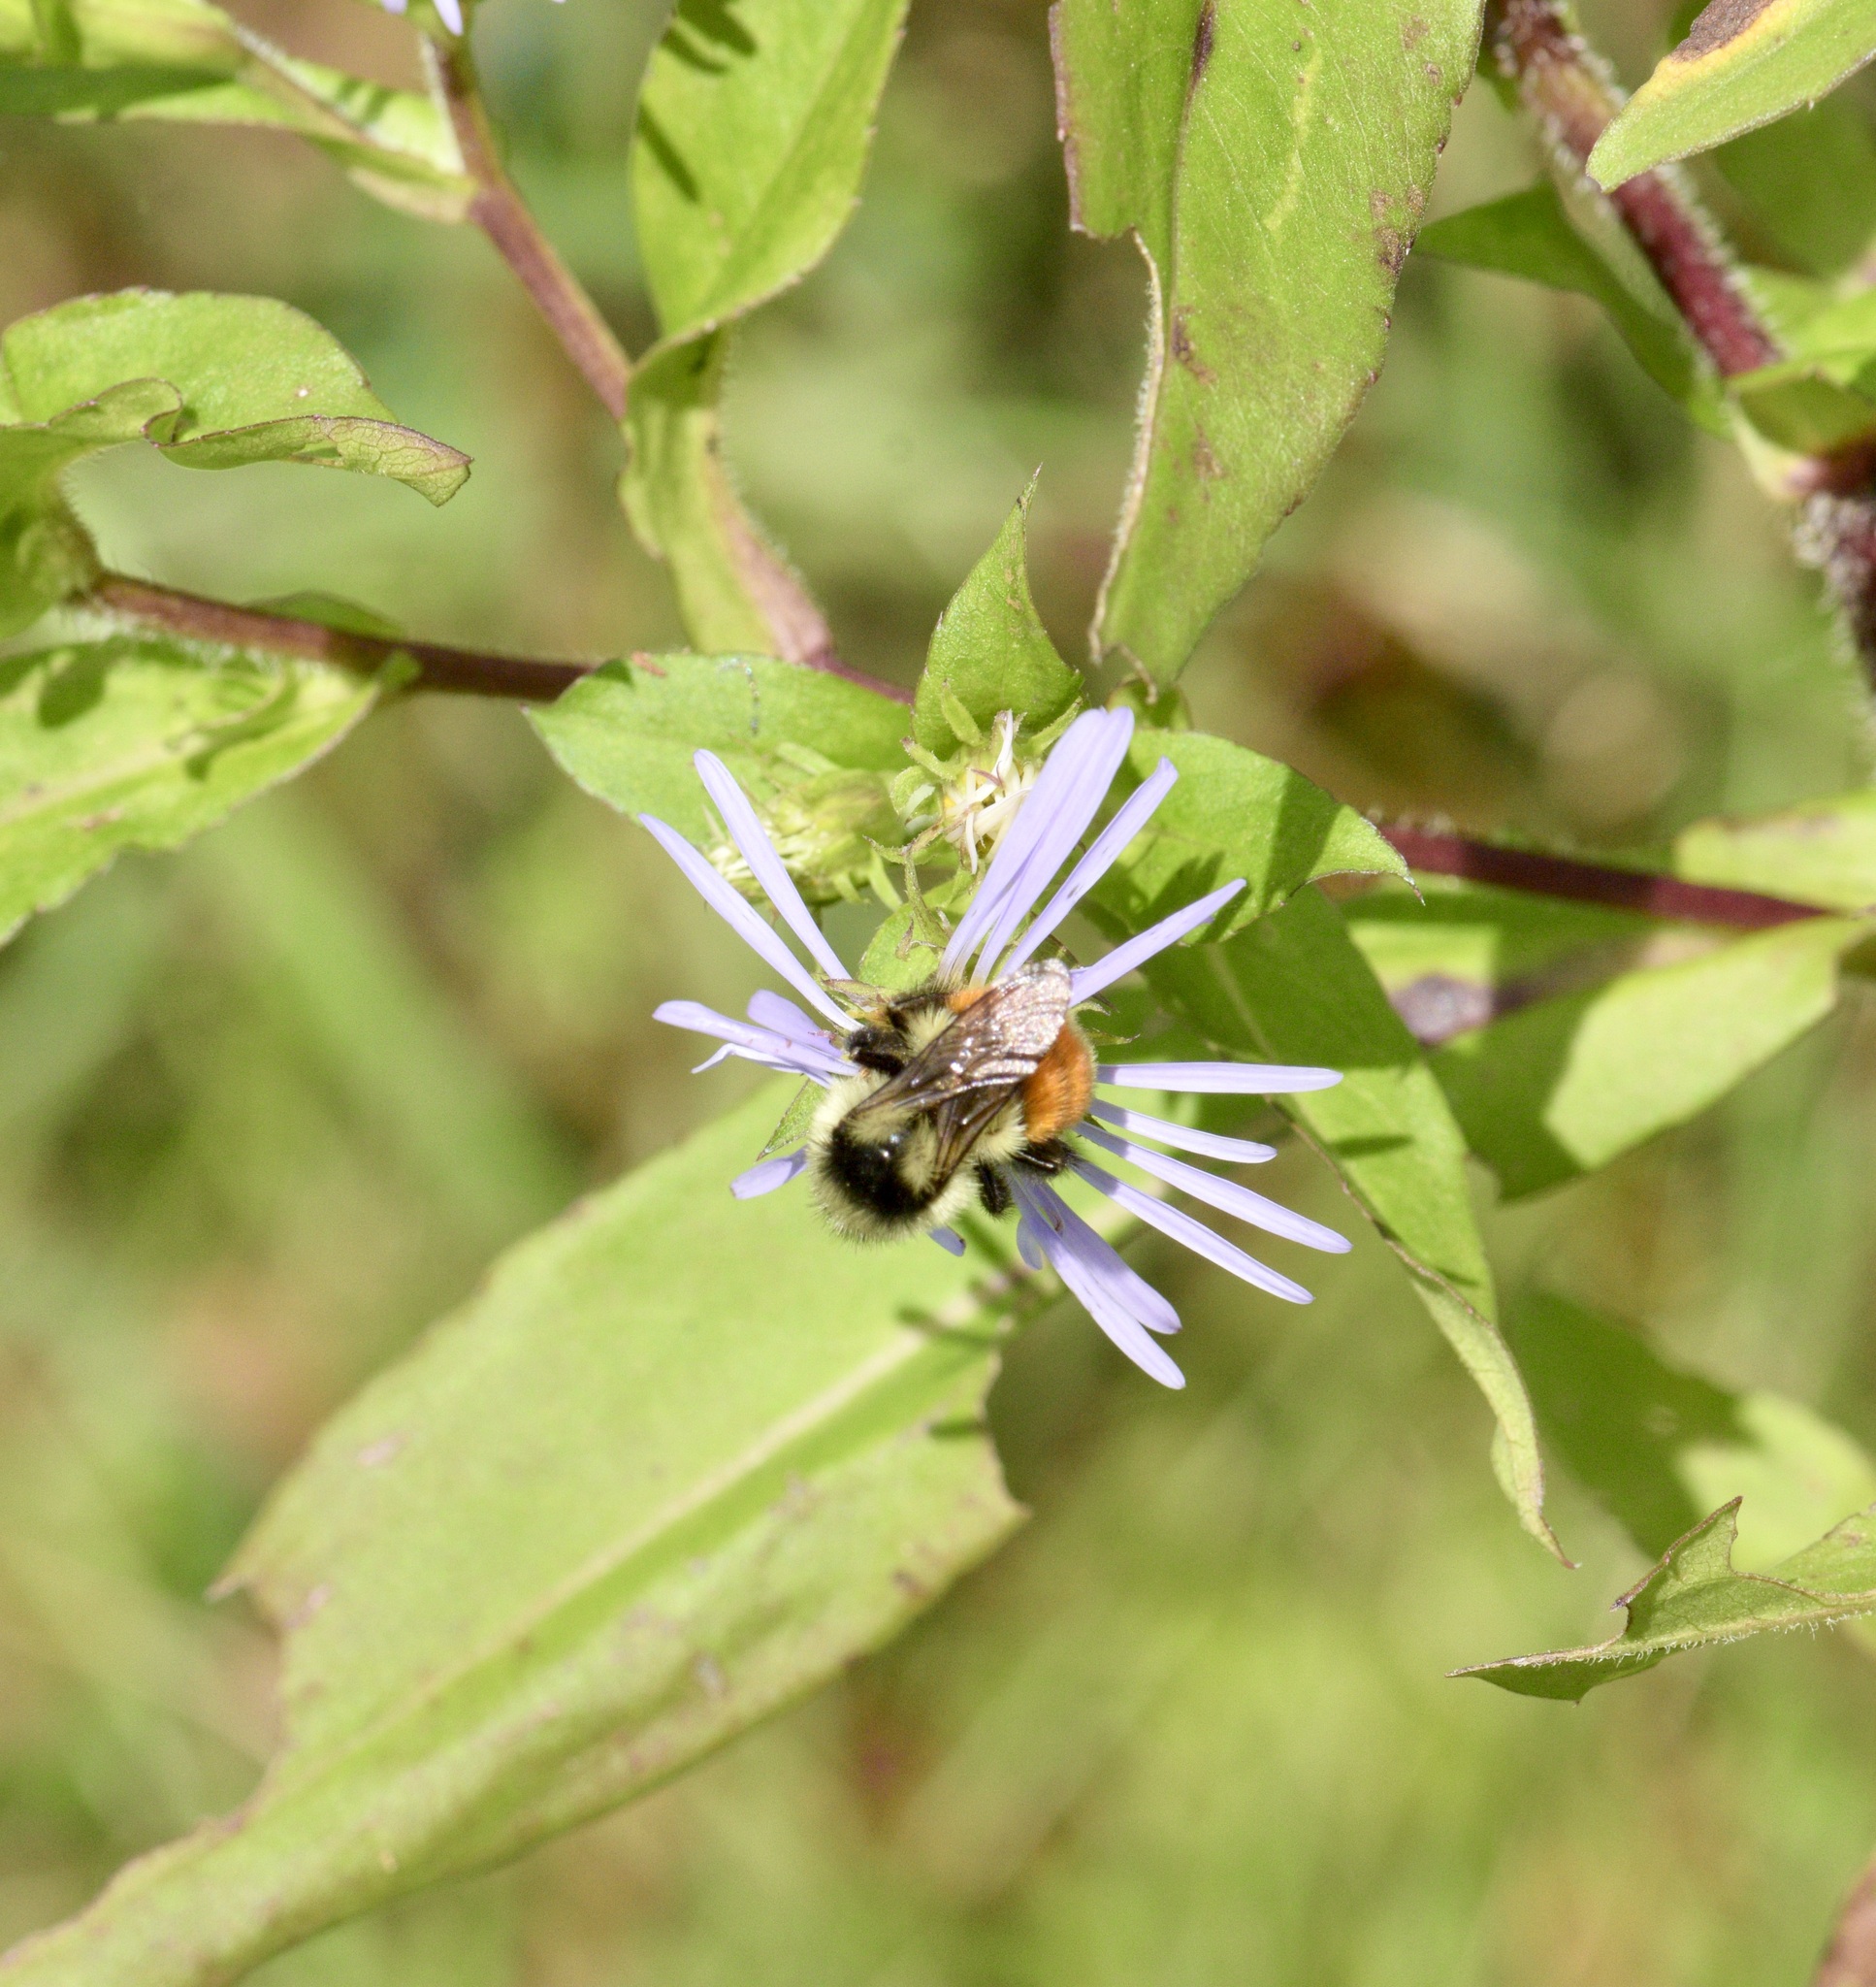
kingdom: Animalia
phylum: Arthropoda
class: Insecta
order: Hymenoptera
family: Apidae
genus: Bombus
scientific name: Bombus ternarius
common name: Tri-colored bumble bee
